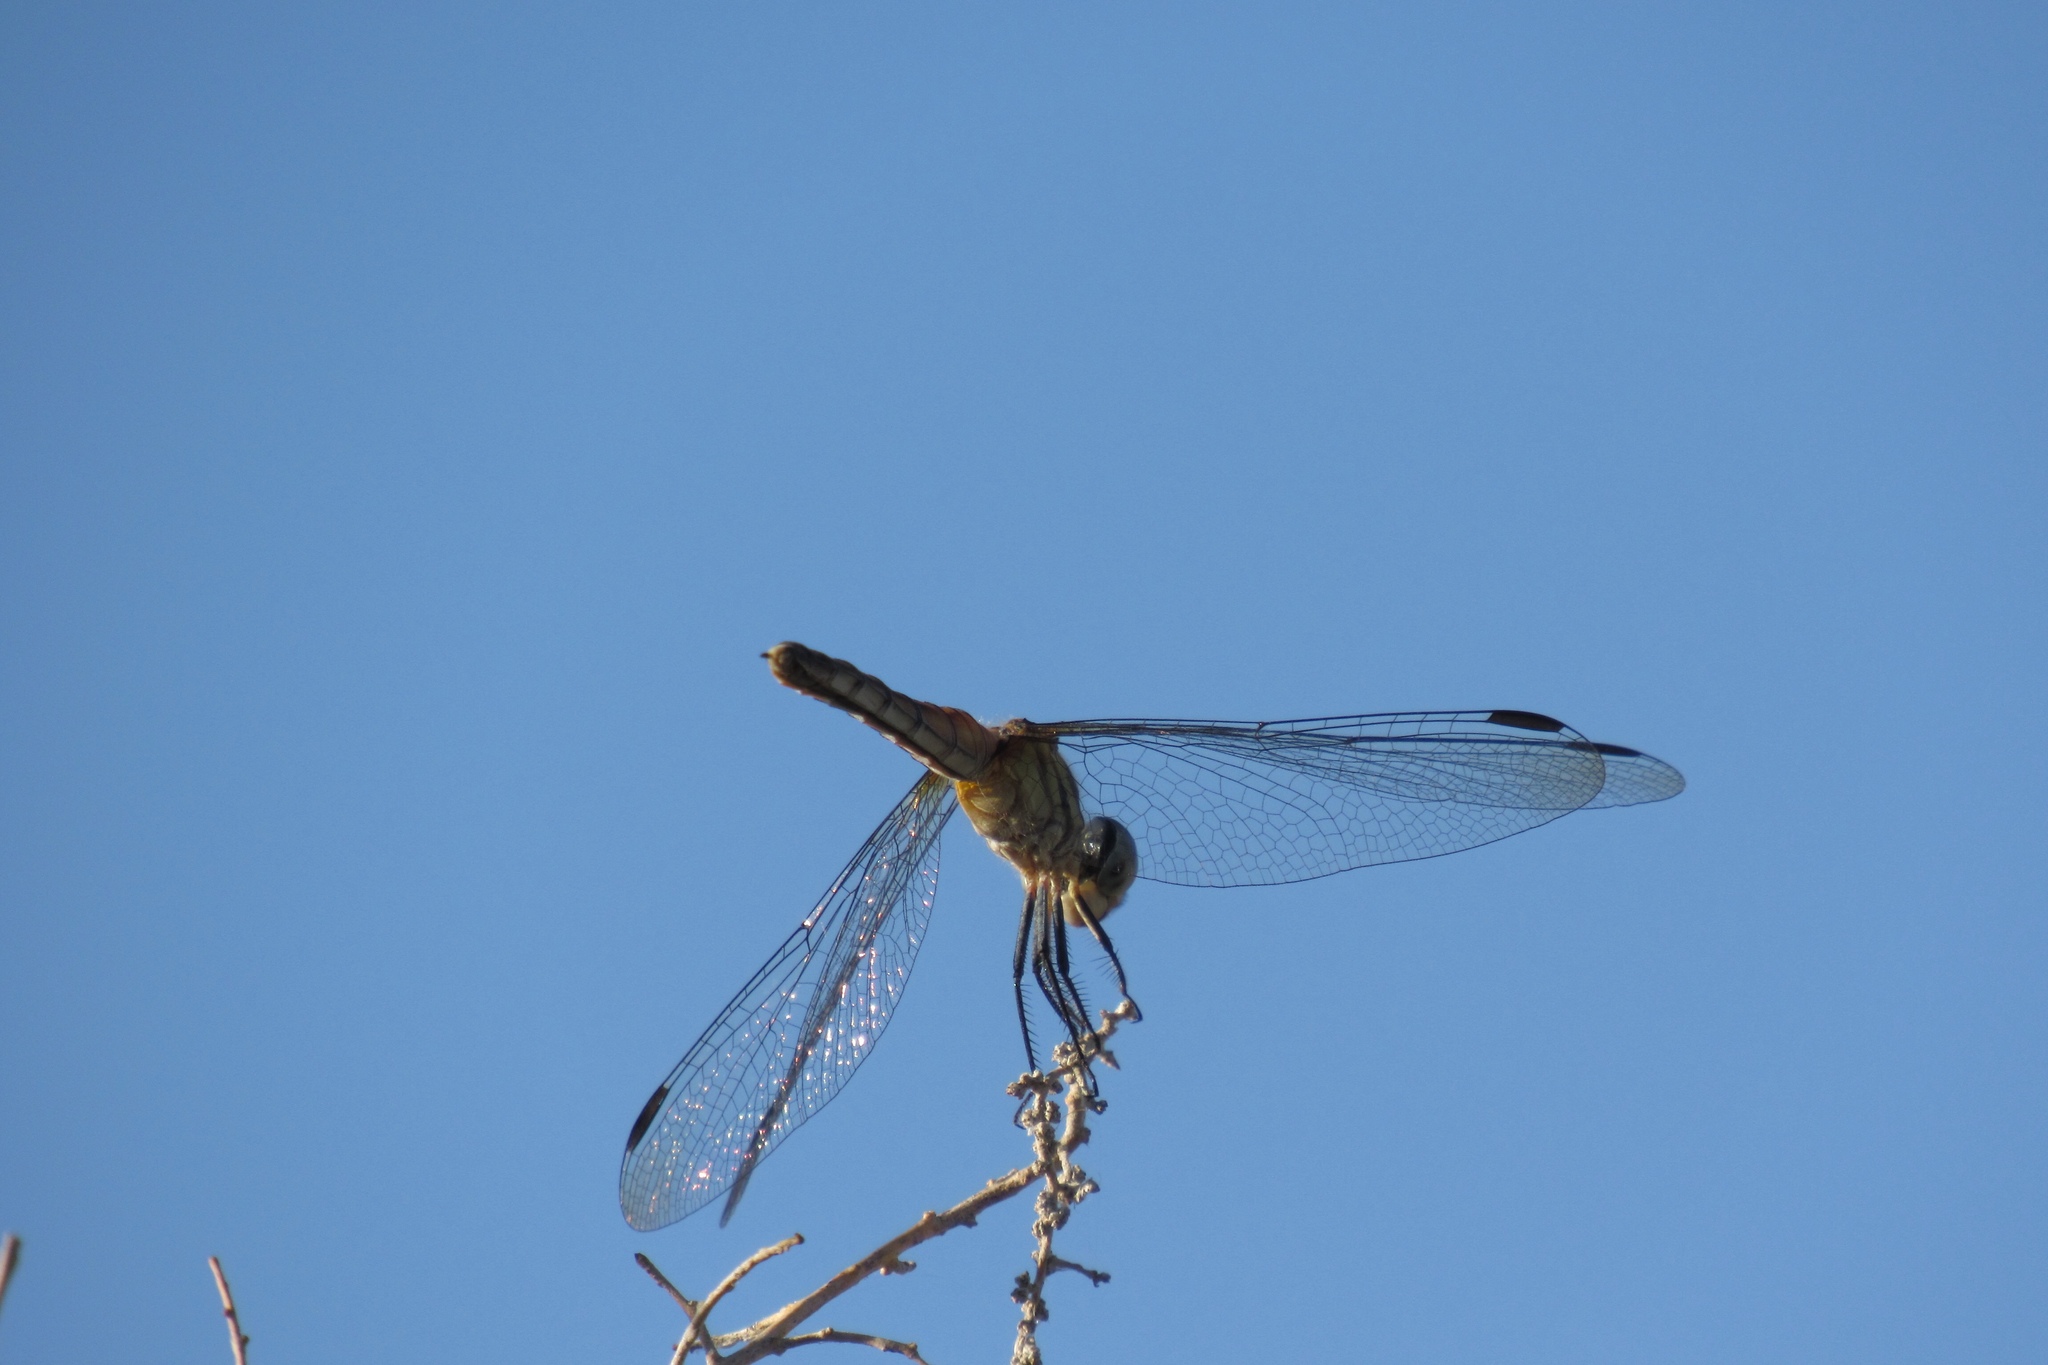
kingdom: Animalia
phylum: Arthropoda
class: Insecta
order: Odonata
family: Libellulidae
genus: Pachydiplax
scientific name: Pachydiplax longipennis
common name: Blue dasher
